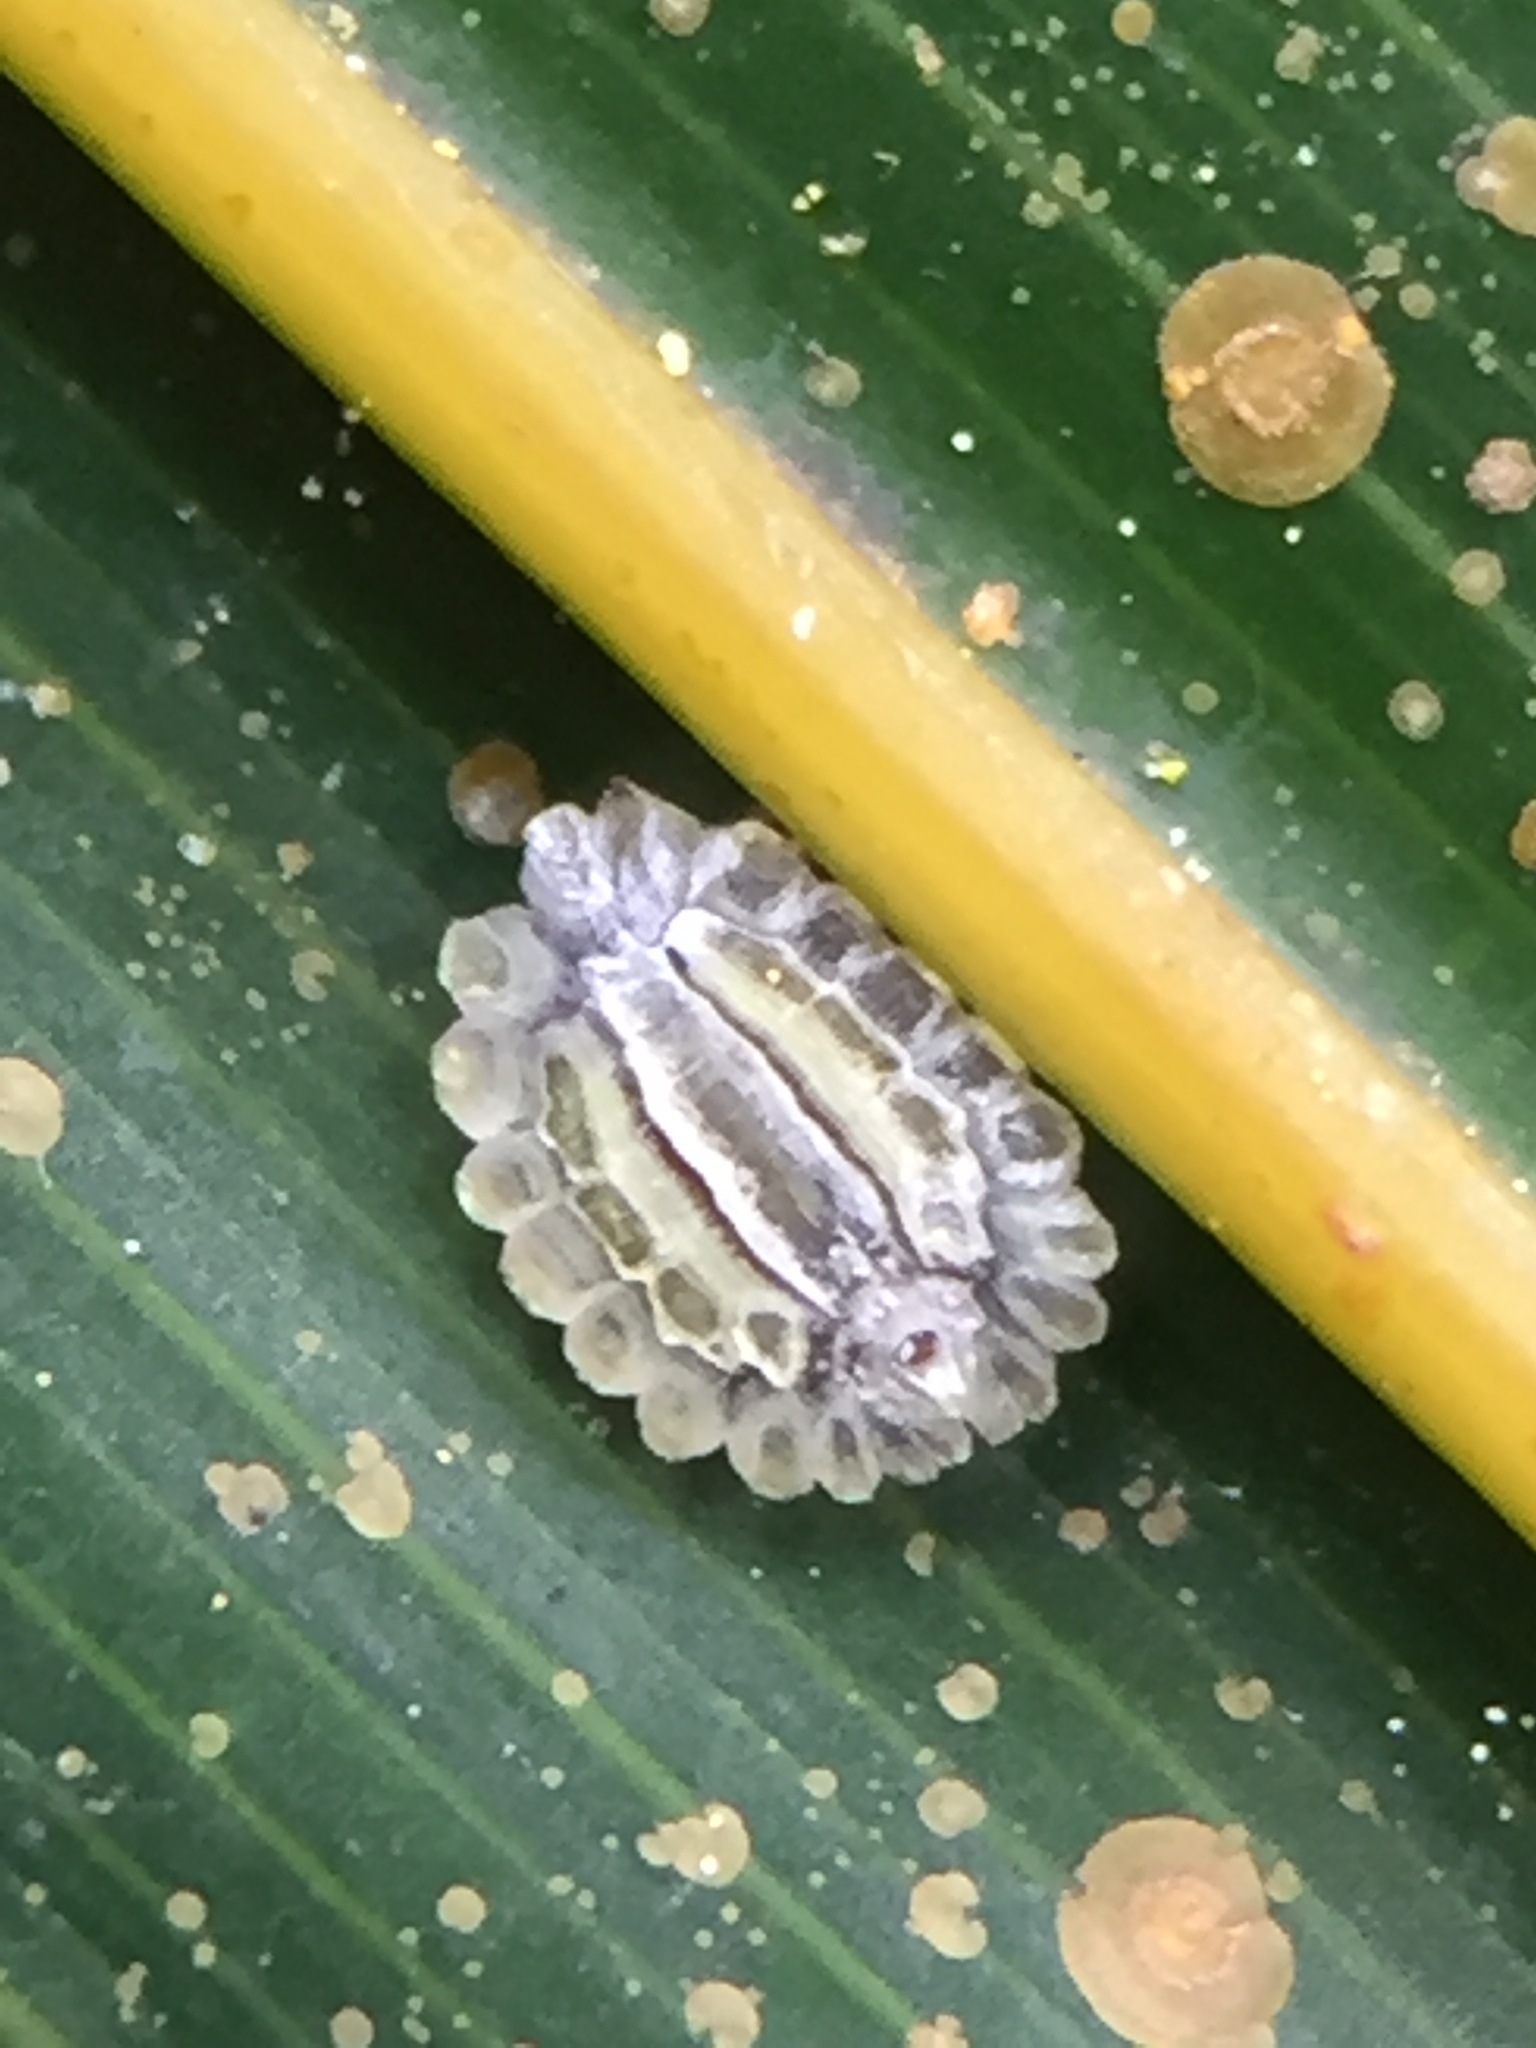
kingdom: Animalia
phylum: Arthropoda
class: Insecta
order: Hemiptera
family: Coccidae
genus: Plumichiton
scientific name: Plumichiton nikau
